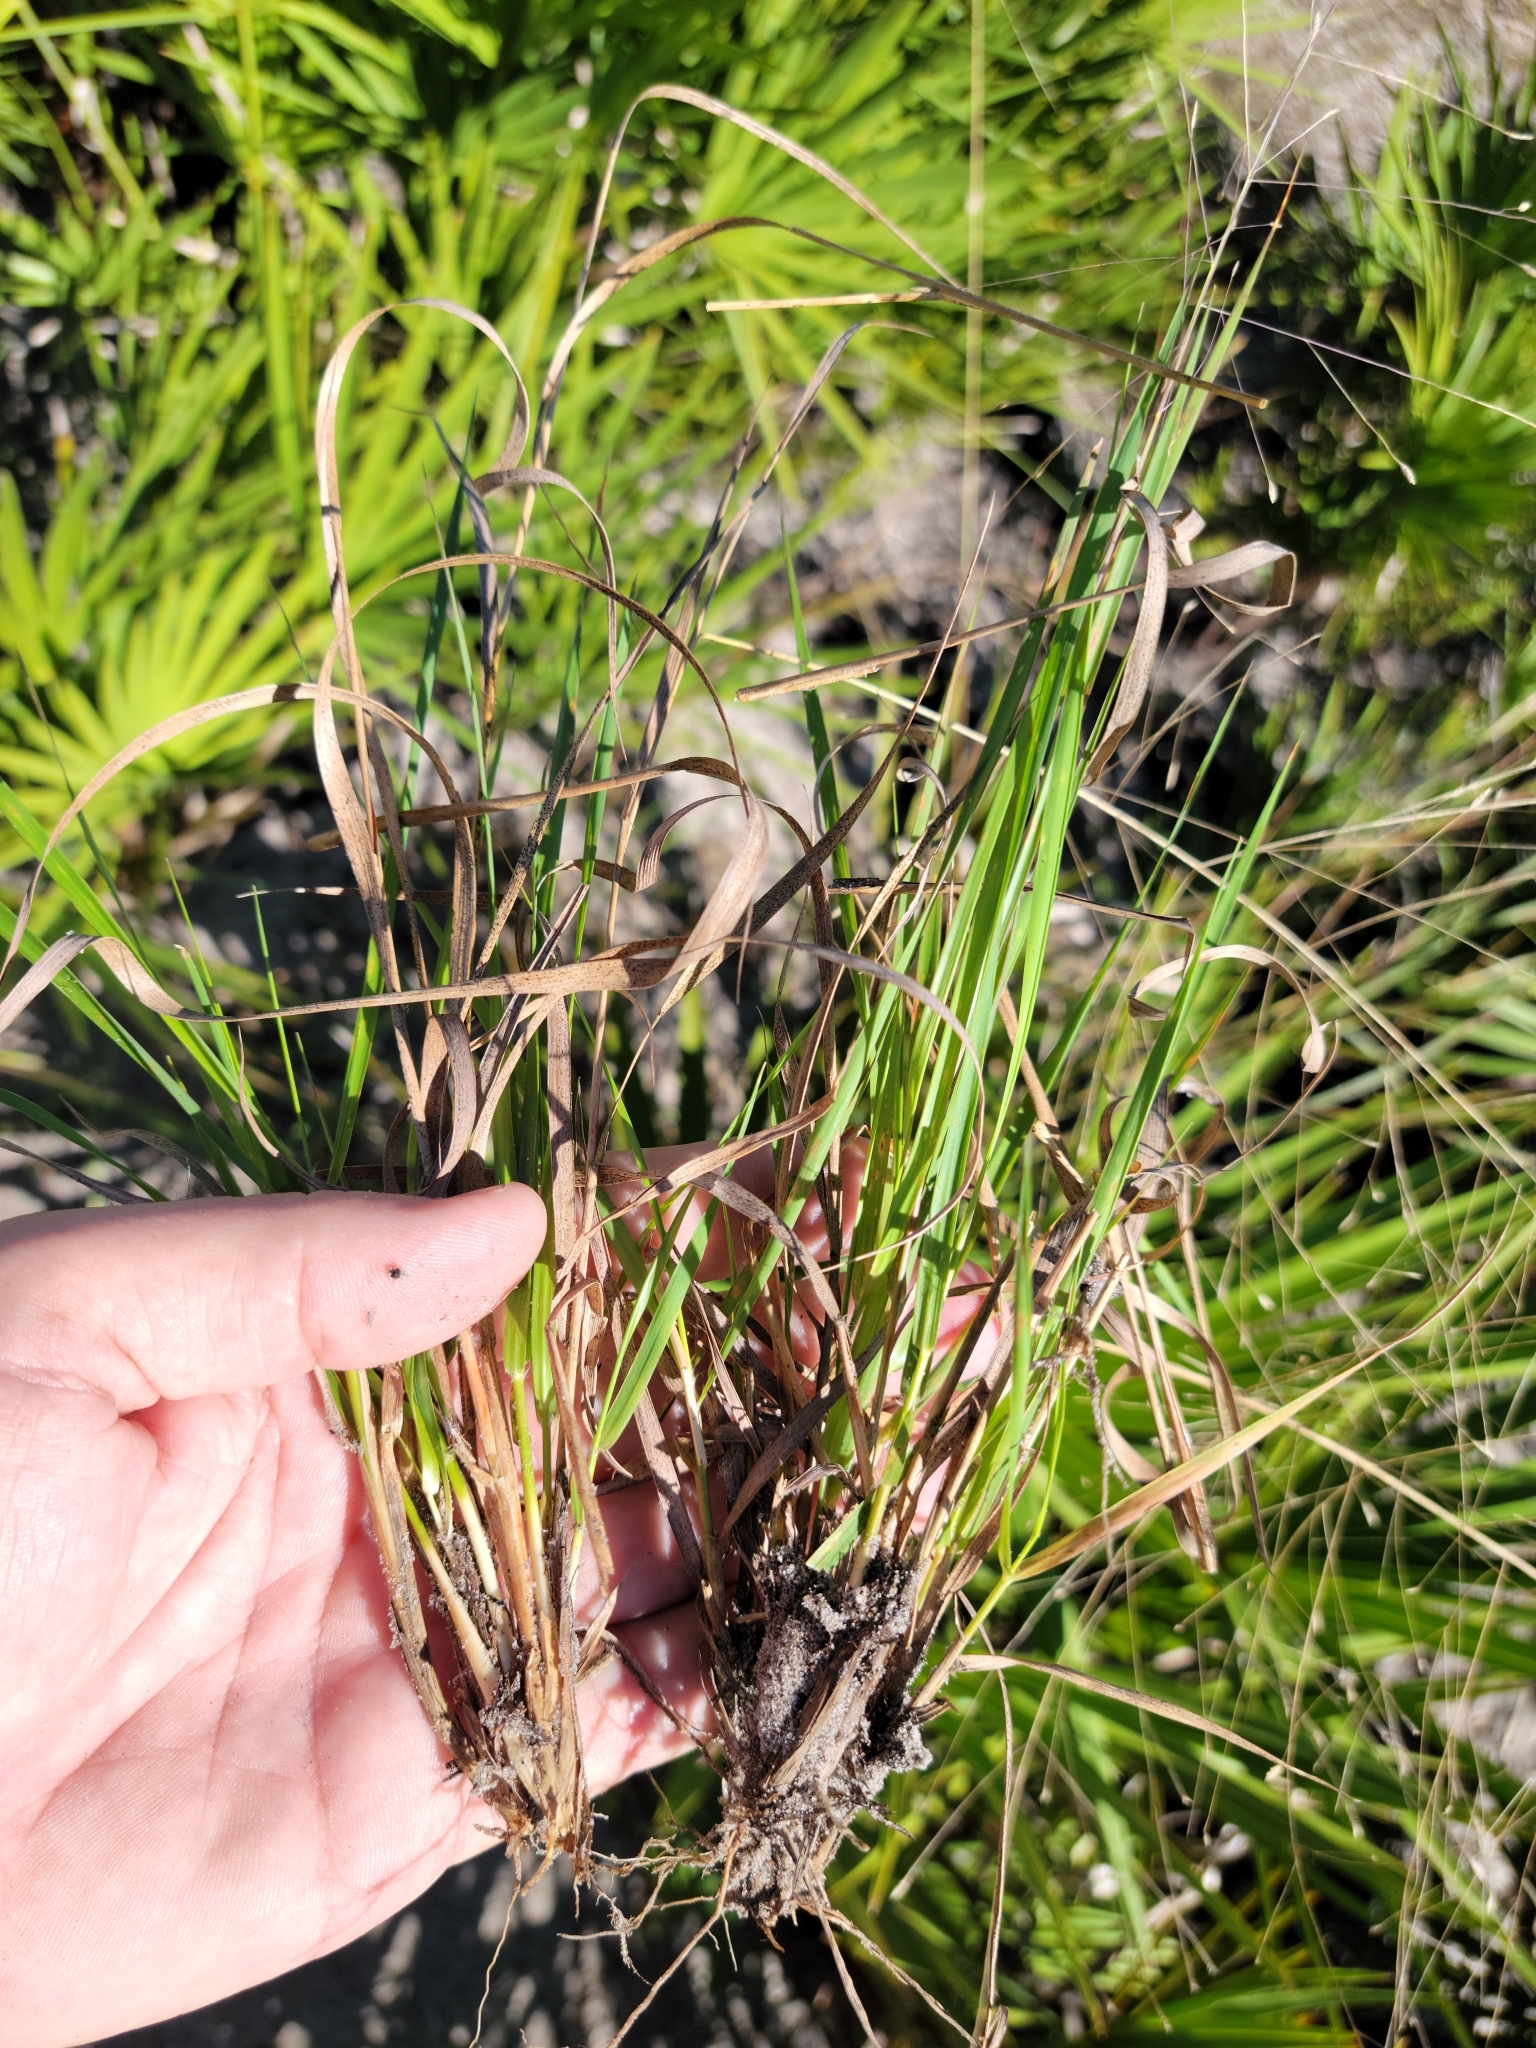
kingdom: Plantae
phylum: Tracheophyta
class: Liliopsida
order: Poales
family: Poaceae
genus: Eragrostis
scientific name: Eragrostis elliottii
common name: Elliott's love grass
